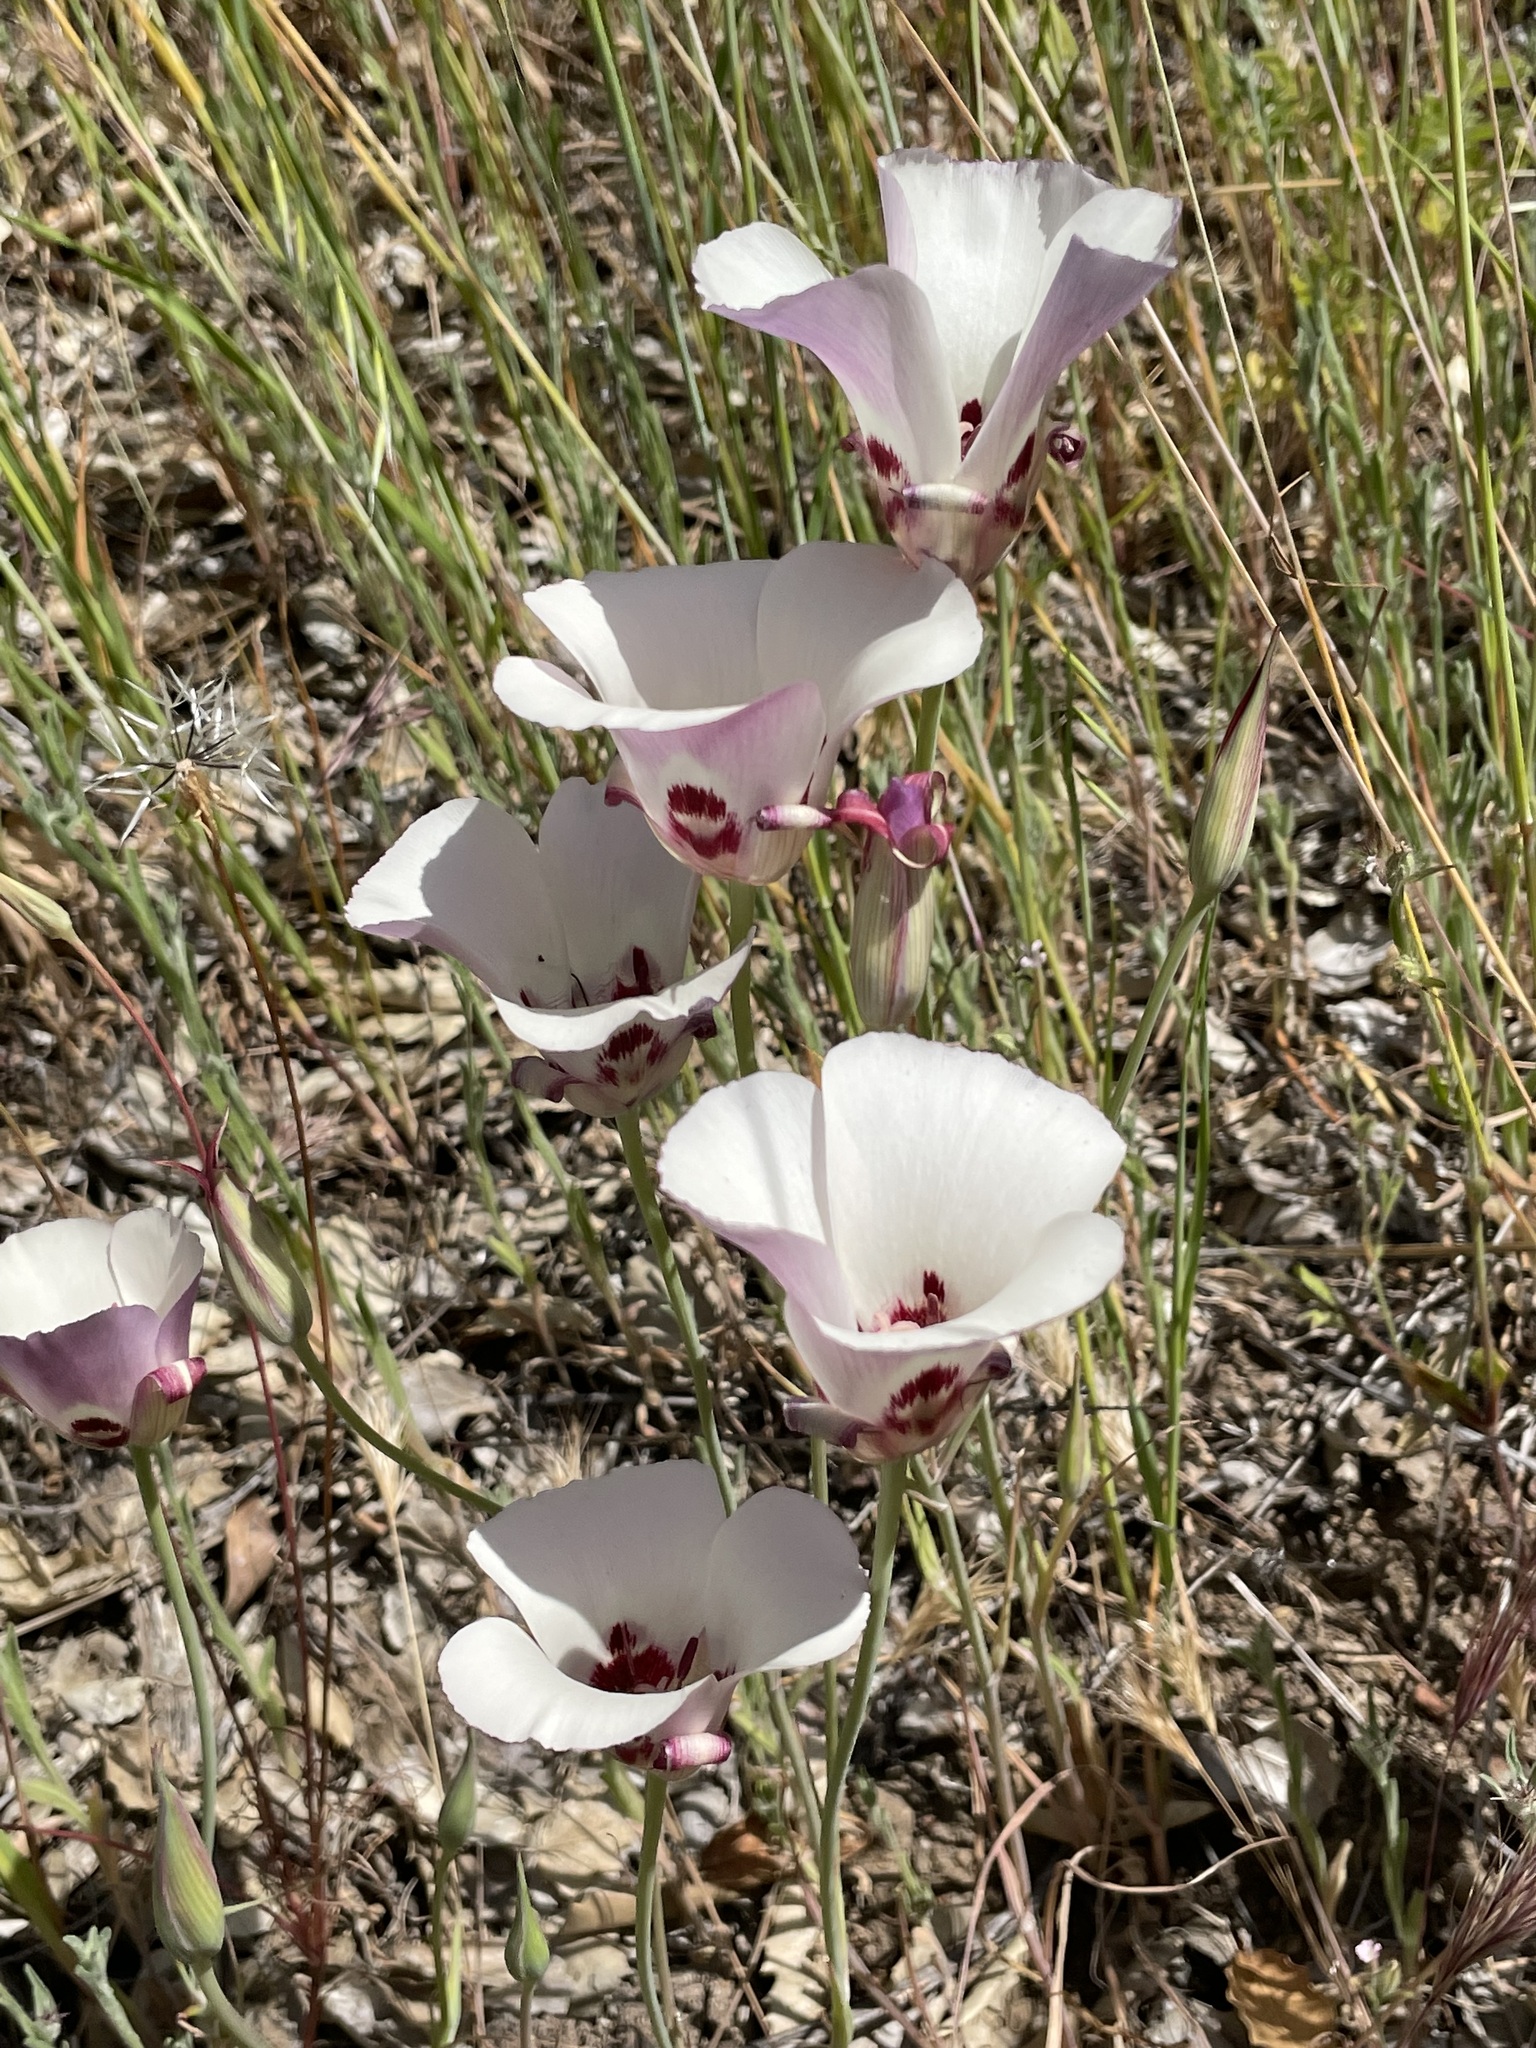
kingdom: Plantae
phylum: Tracheophyta
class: Liliopsida
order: Liliales
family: Liliaceae
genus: Calochortus
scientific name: Calochortus simulans
